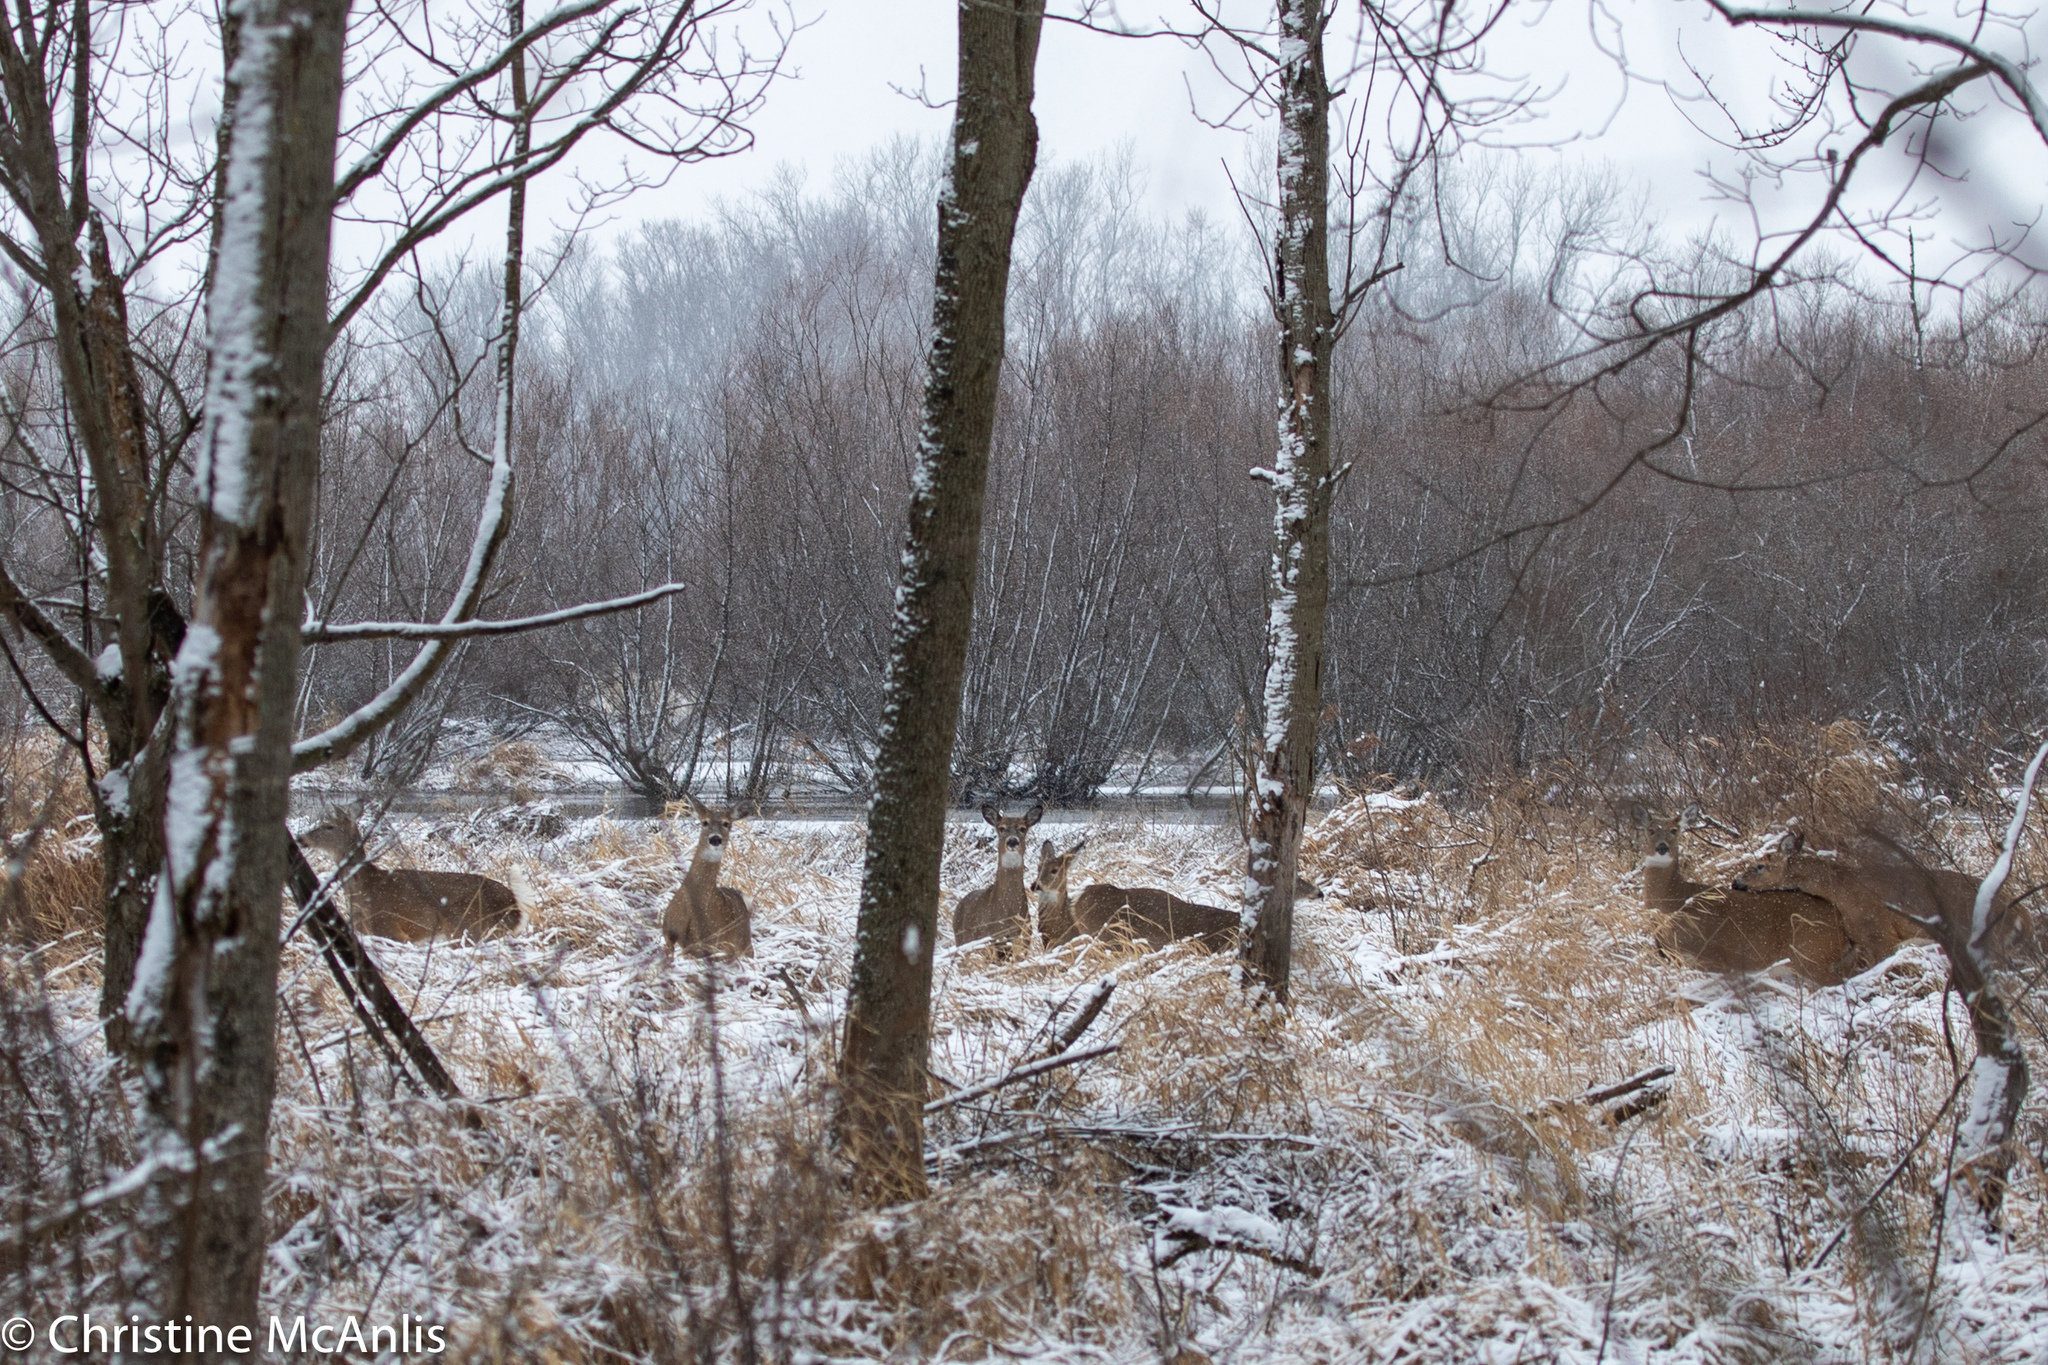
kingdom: Animalia
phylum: Chordata
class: Mammalia
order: Artiodactyla
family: Cervidae
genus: Odocoileus
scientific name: Odocoileus virginianus
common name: White-tailed deer
